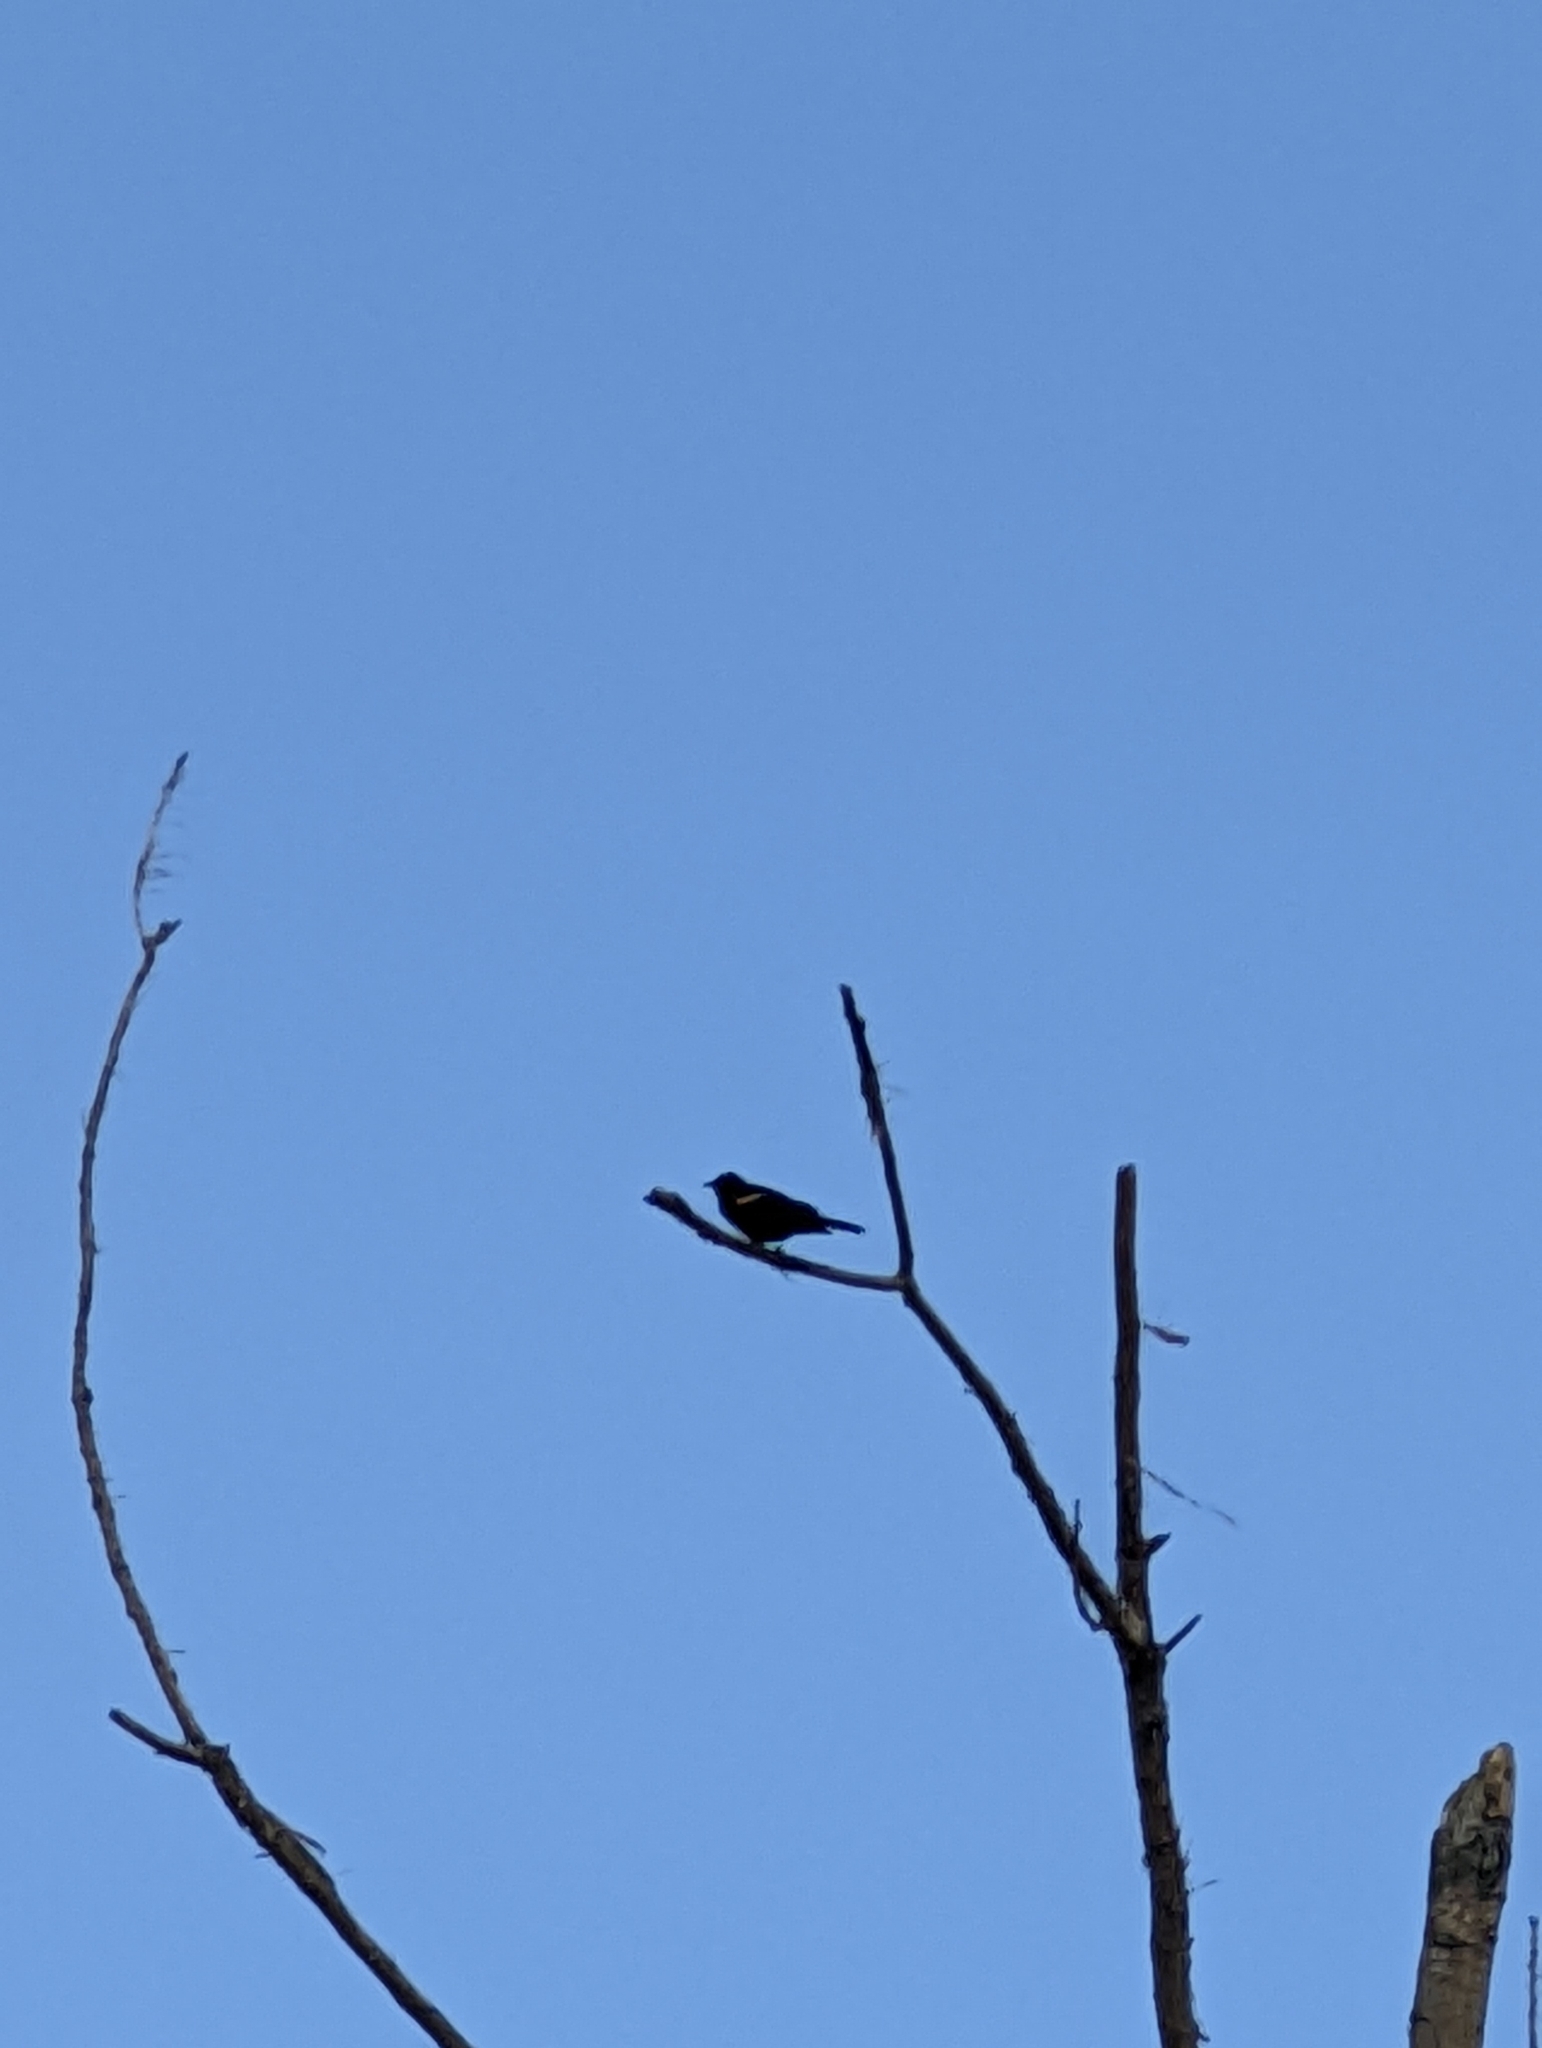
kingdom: Animalia
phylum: Chordata
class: Aves
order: Passeriformes
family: Icteridae
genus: Agelaius
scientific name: Agelaius phoeniceus
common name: Red-winged blackbird
